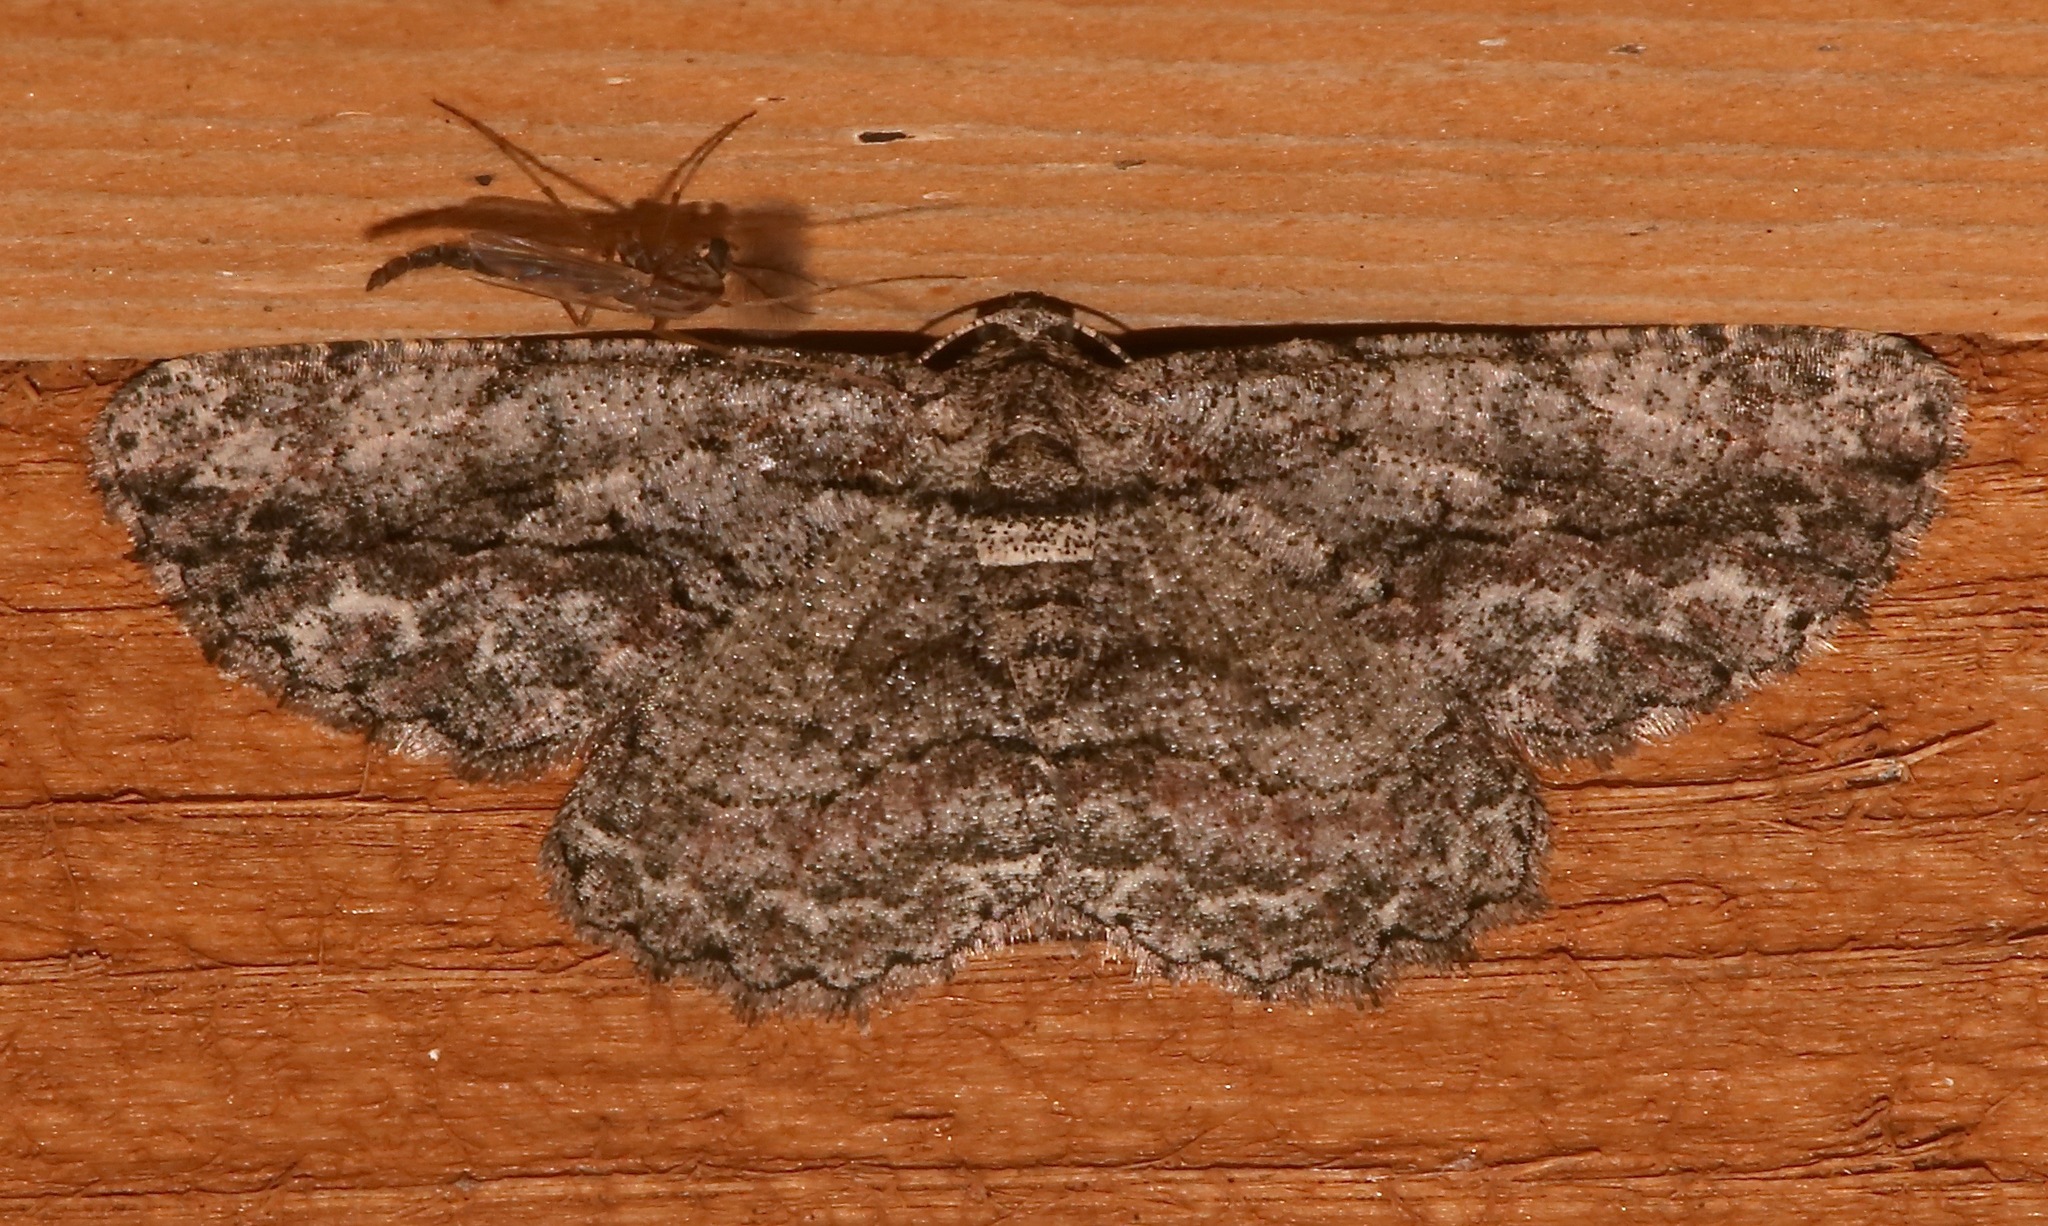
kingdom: Animalia
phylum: Arthropoda
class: Insecta
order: Lepidoptera
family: Geometridae
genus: Anavitrinella
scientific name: Anavitrinella pampinaria
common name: Common gray
